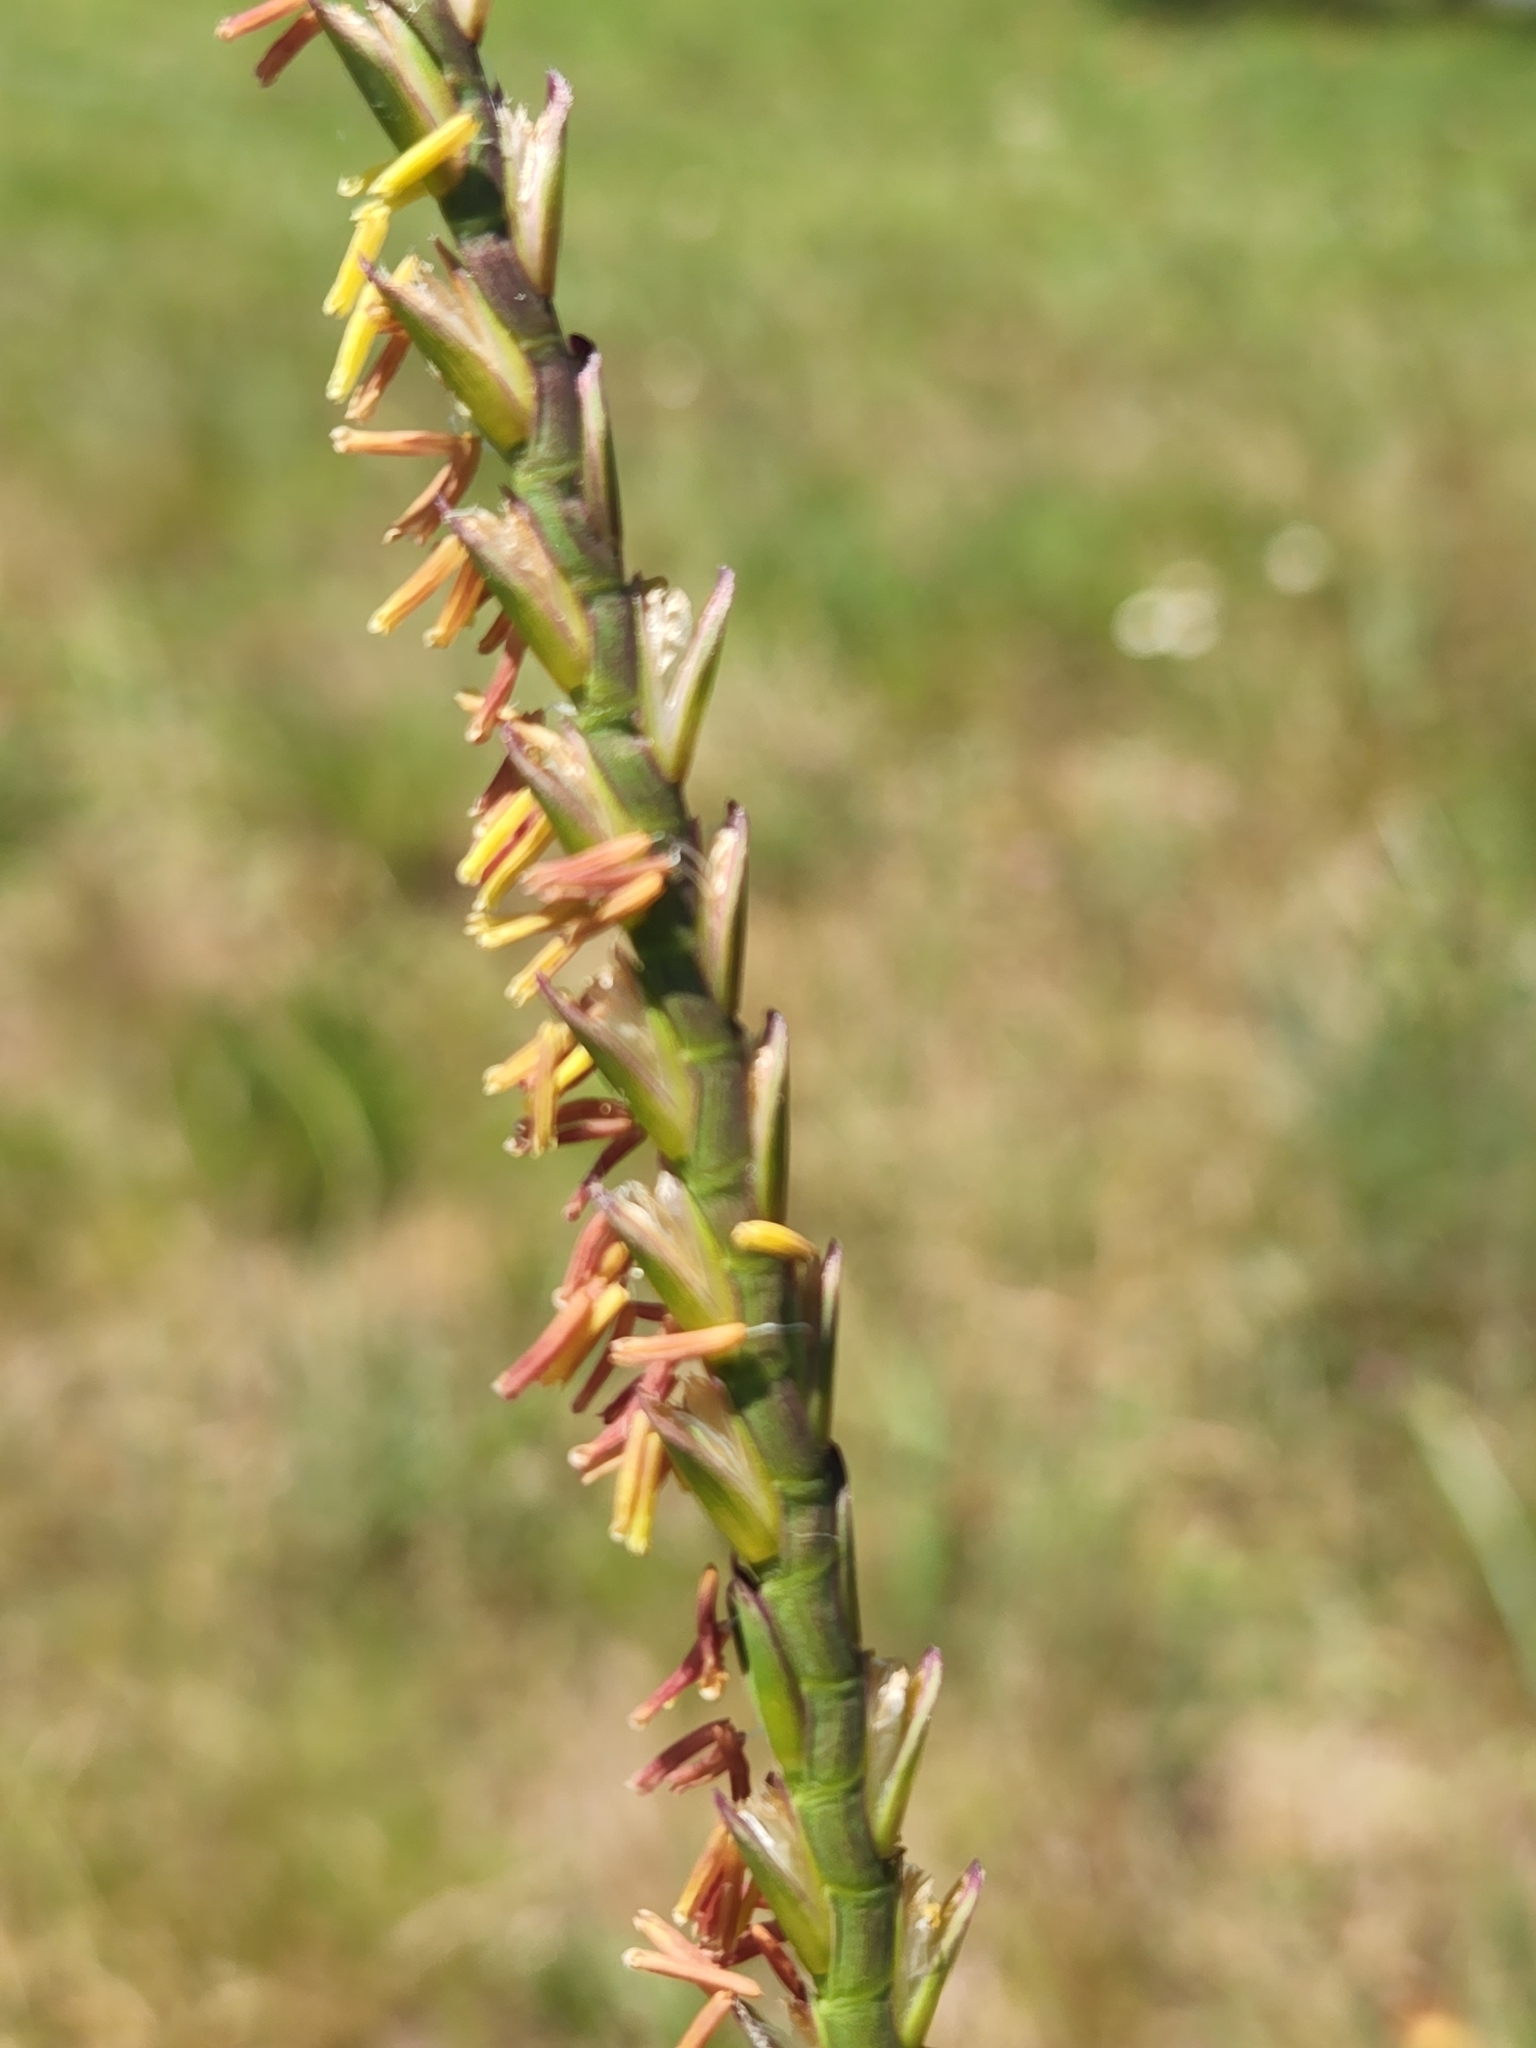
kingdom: Plantae
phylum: Tracheophyta
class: Liliopsida
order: Poales
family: Poaceae
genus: Tripsacum
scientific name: Tripsacum dactyloides
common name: Buffalo-grass
